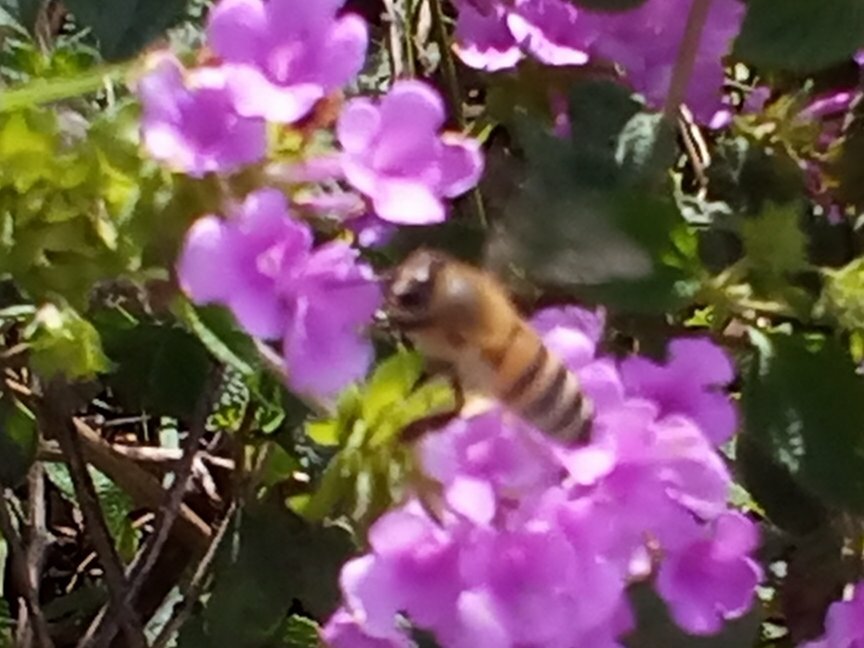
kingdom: Animalia
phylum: Arthropoda
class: Insecta
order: Hymenoptera
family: Apidae
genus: Apis
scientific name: Apis mellifera
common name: Honey bee
